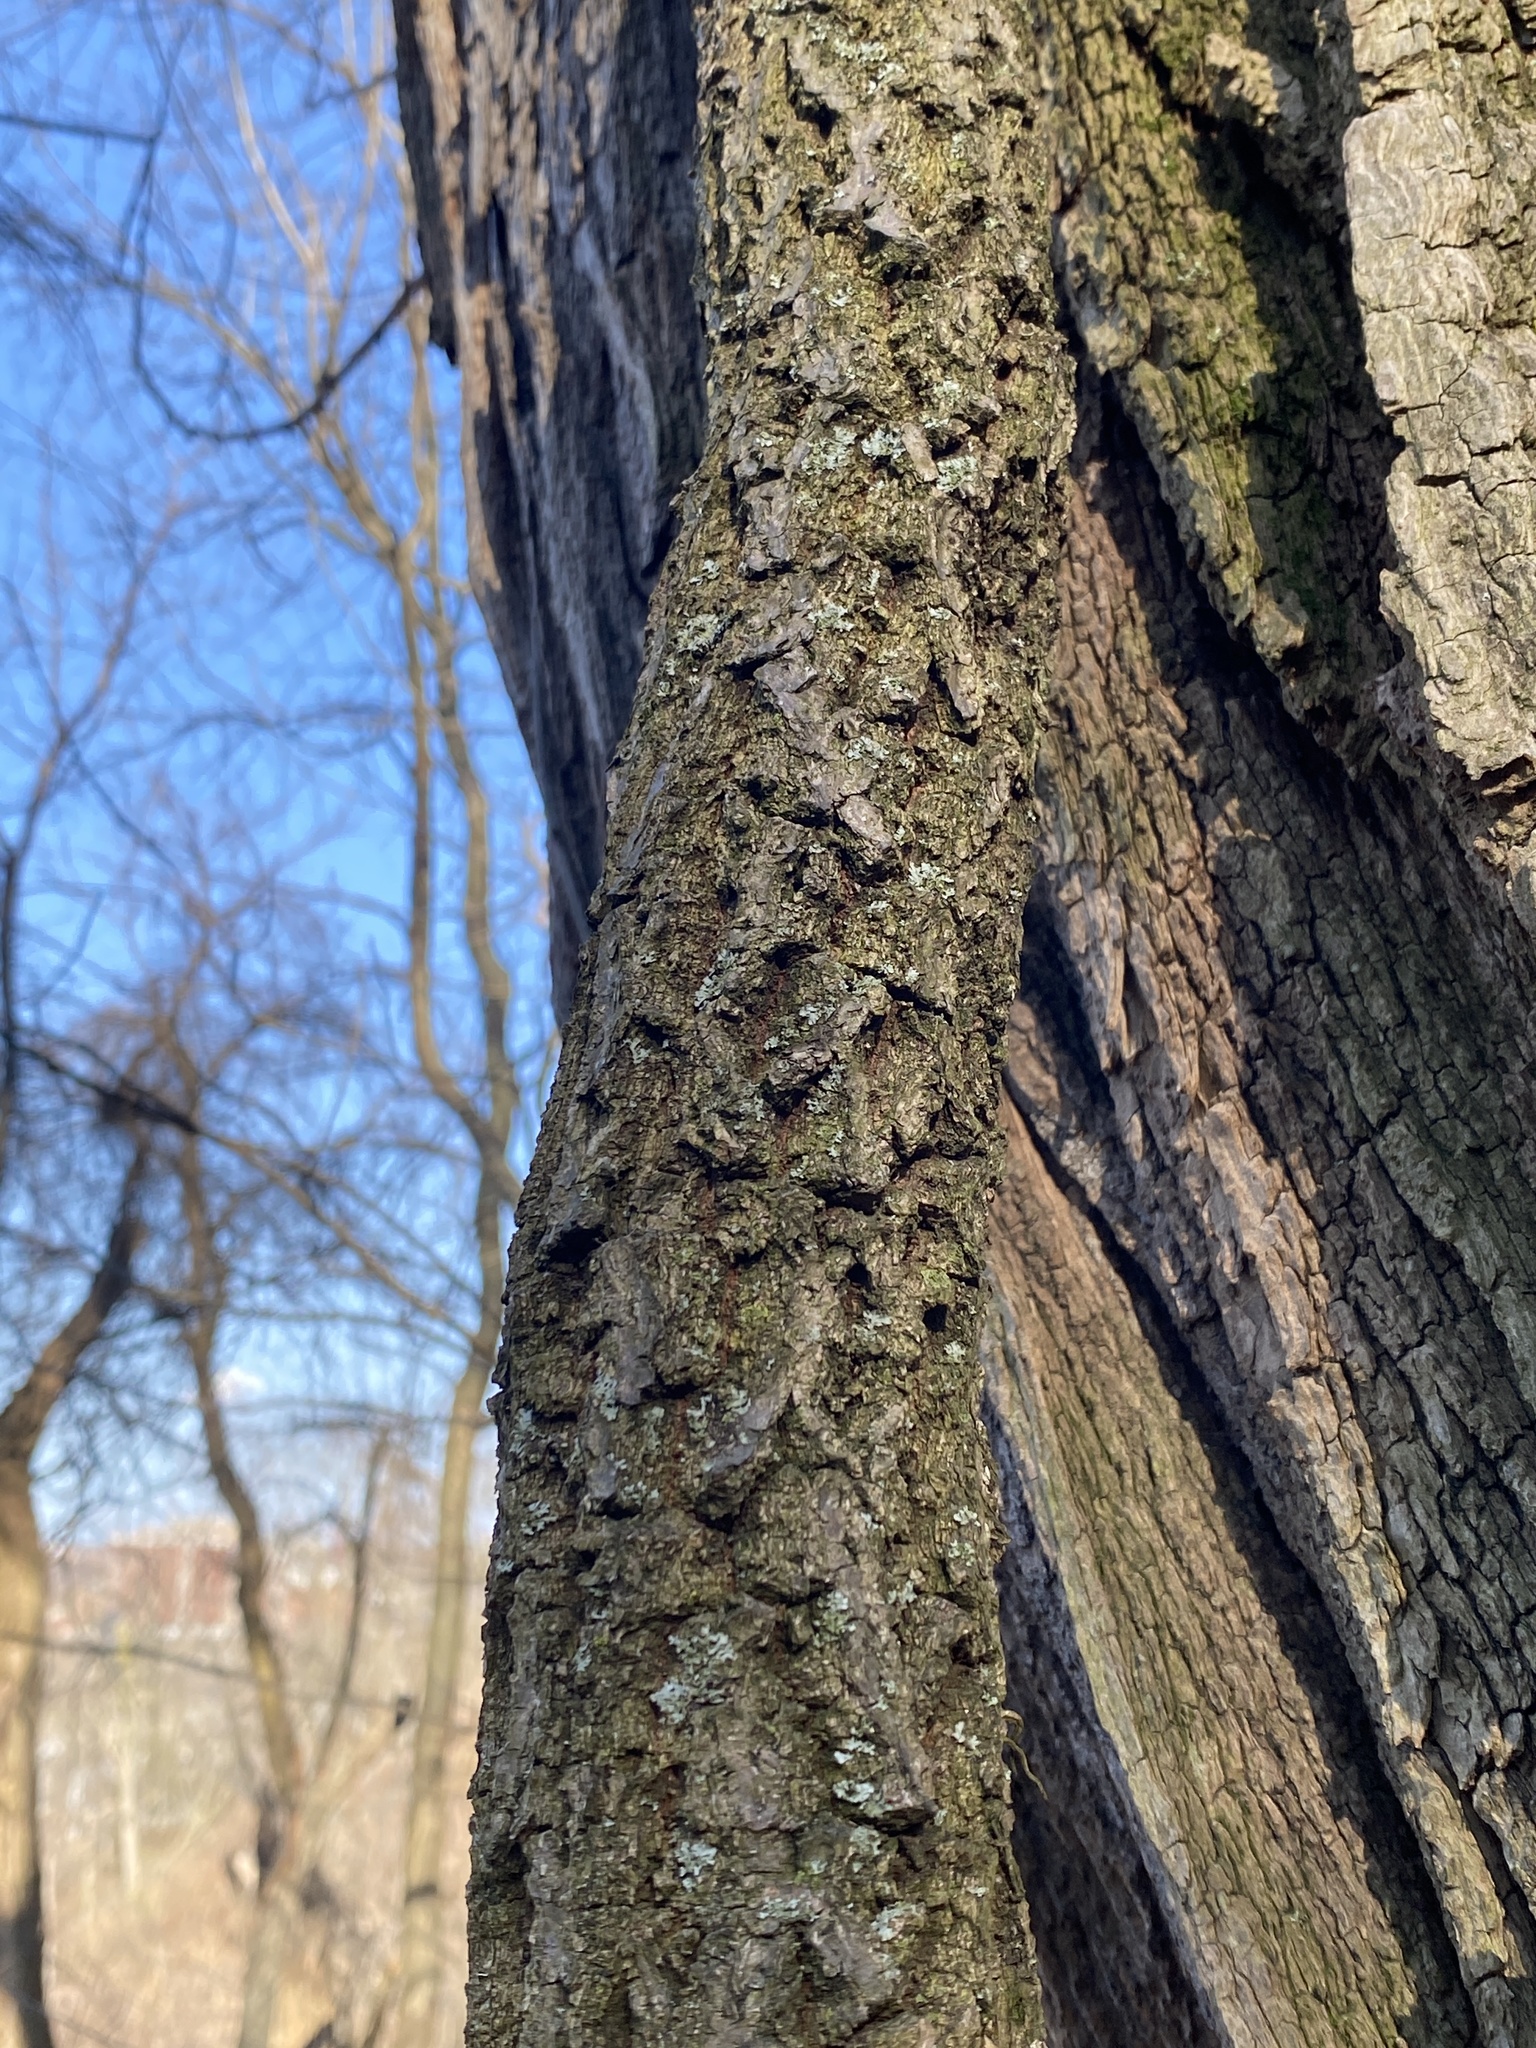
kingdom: Plantae
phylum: Tracheophyta
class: Magnoliopsida
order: Celastrales
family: Celastraceae
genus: Celastrus
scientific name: Celastrus orbiculatus
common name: Oriental bittersweet
